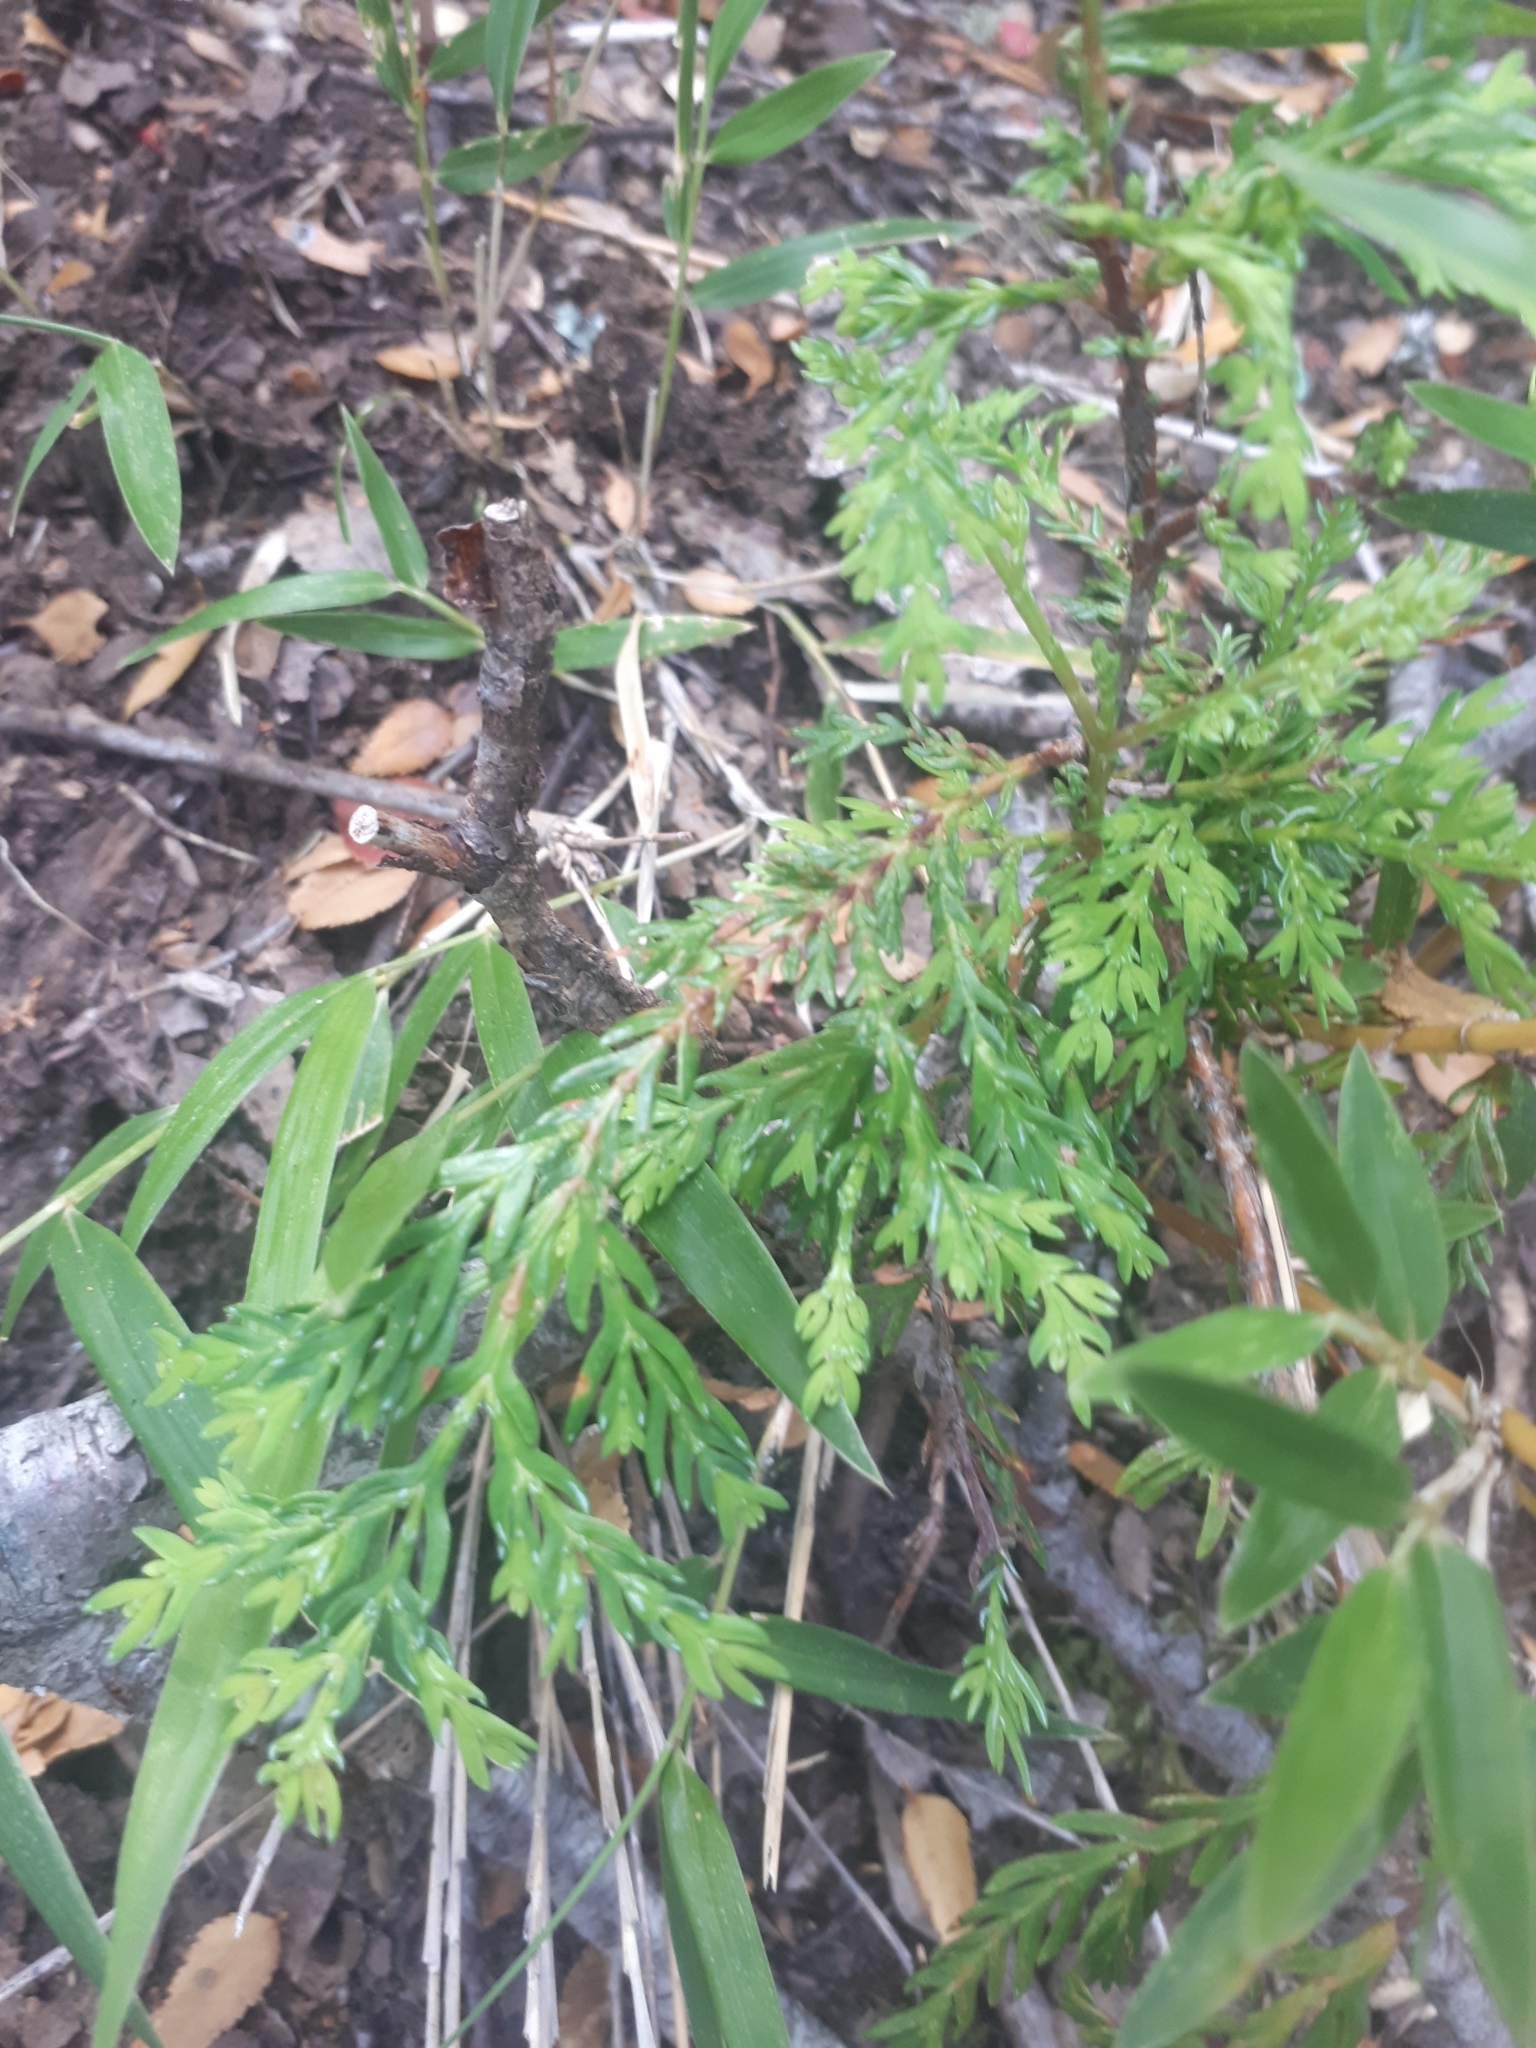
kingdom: Plantae
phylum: Tracheophyta
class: Pinopsida
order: Pinales
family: Cupressaceae
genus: Austrocedrus
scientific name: Austrocedrus chilensis
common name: Chilean incense-cedar
